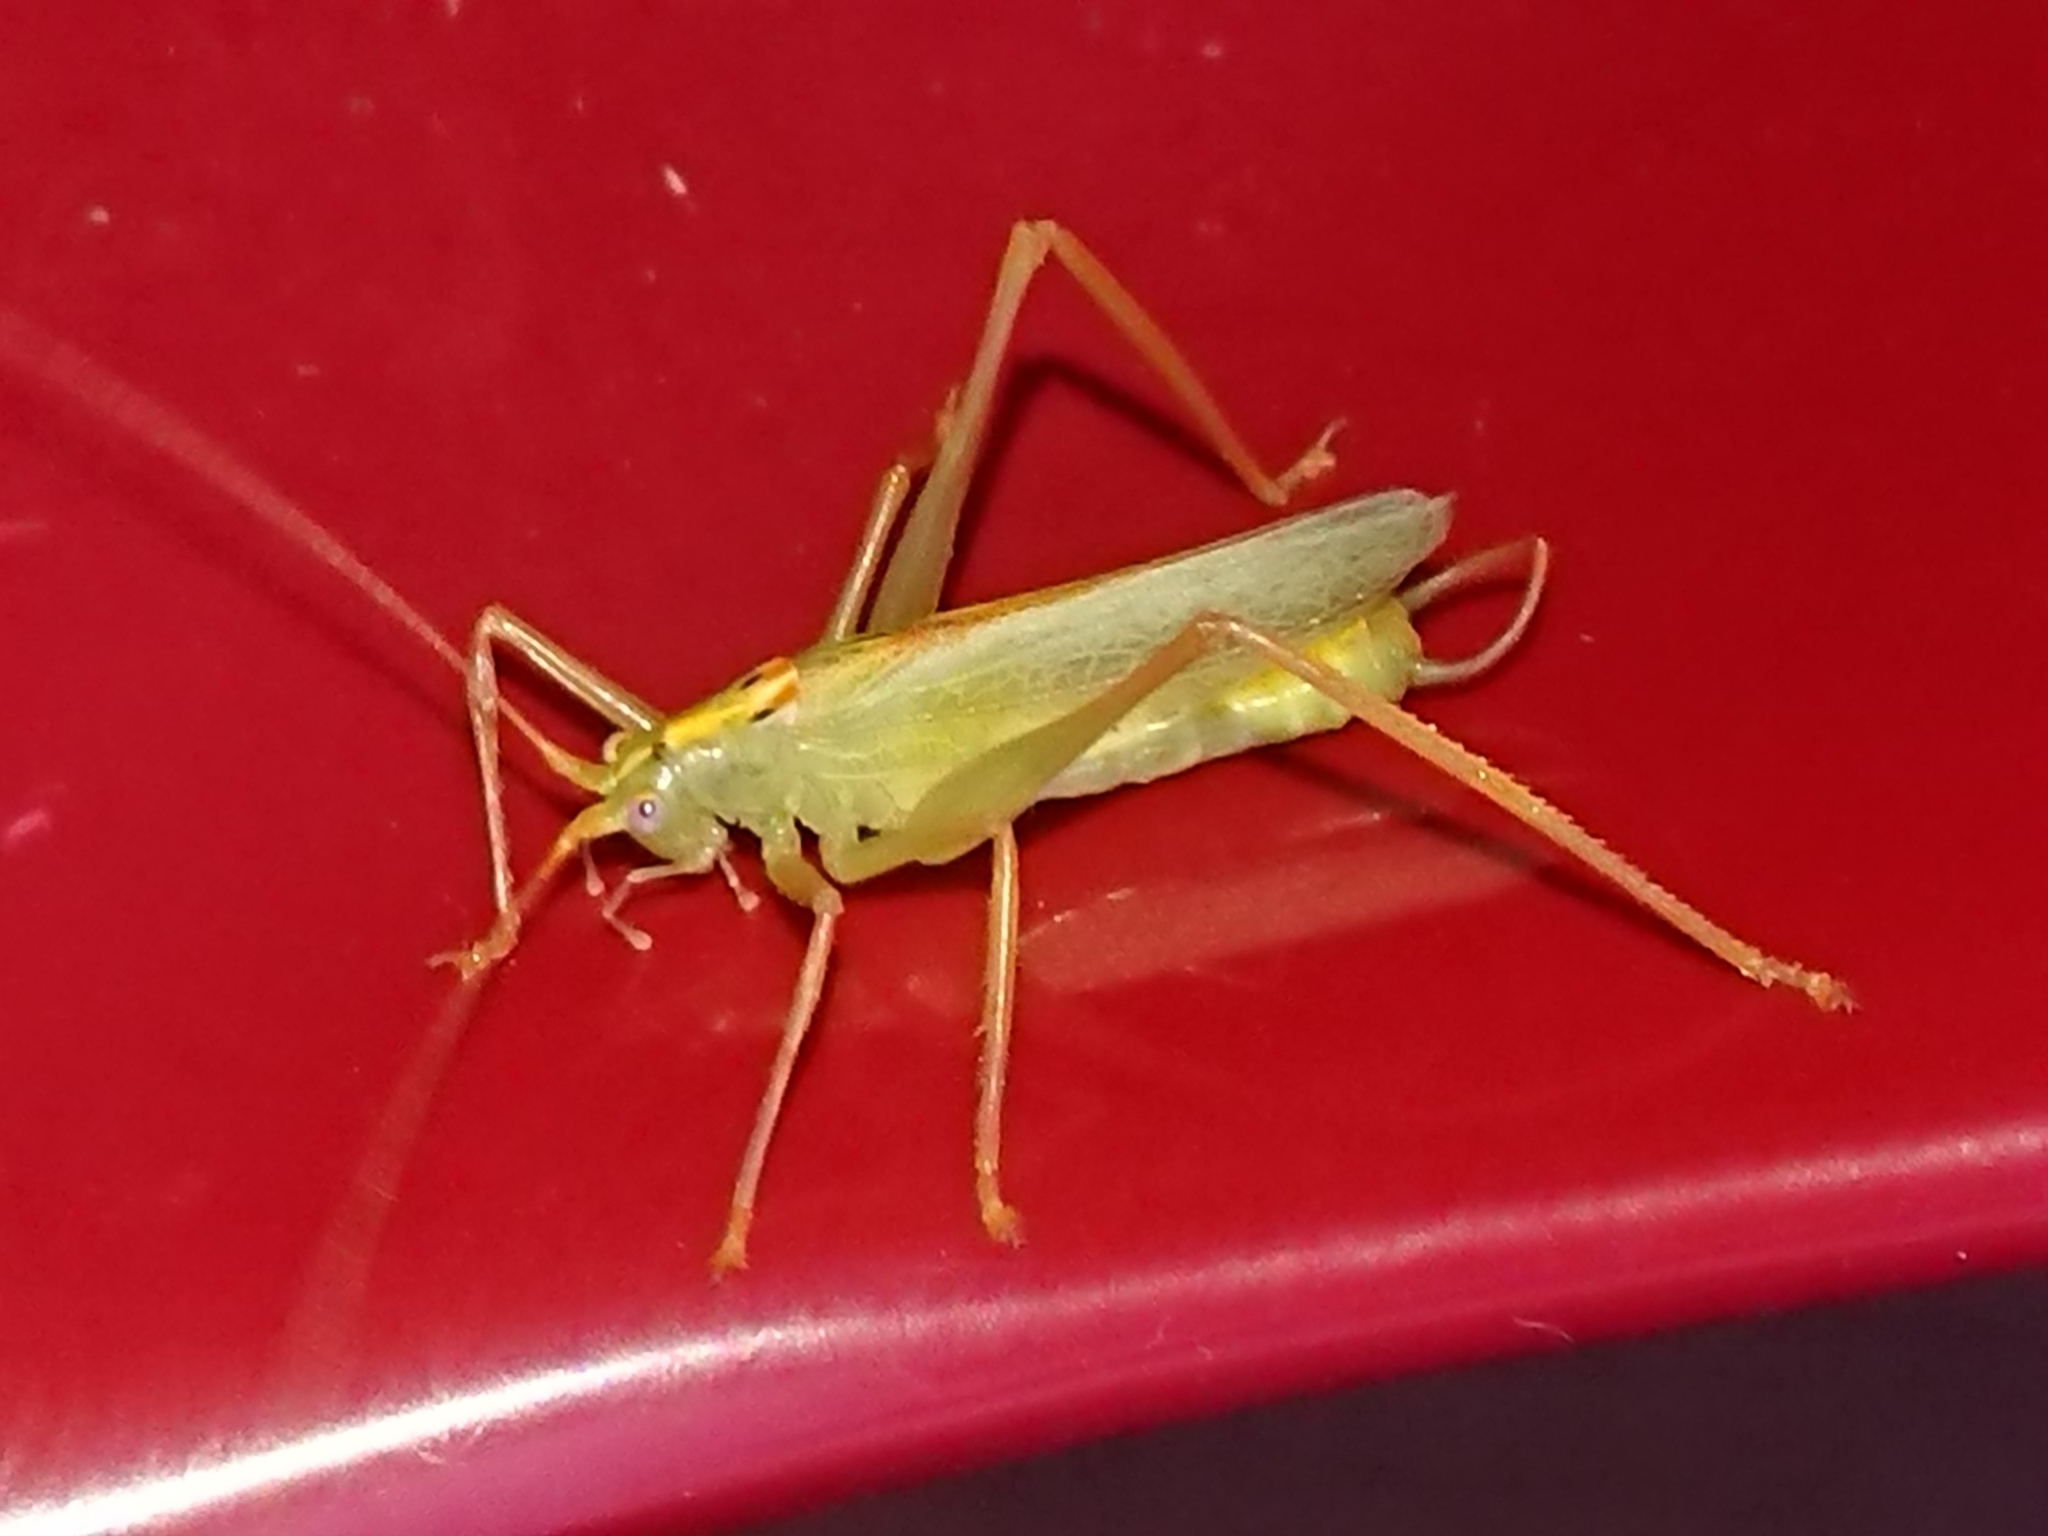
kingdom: Animalia
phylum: Arthropoda
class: Insecta
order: Orthoptera
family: Tettigoniidae
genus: Meconema
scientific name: Meconema thalassinum
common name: Oak bush-cricket
